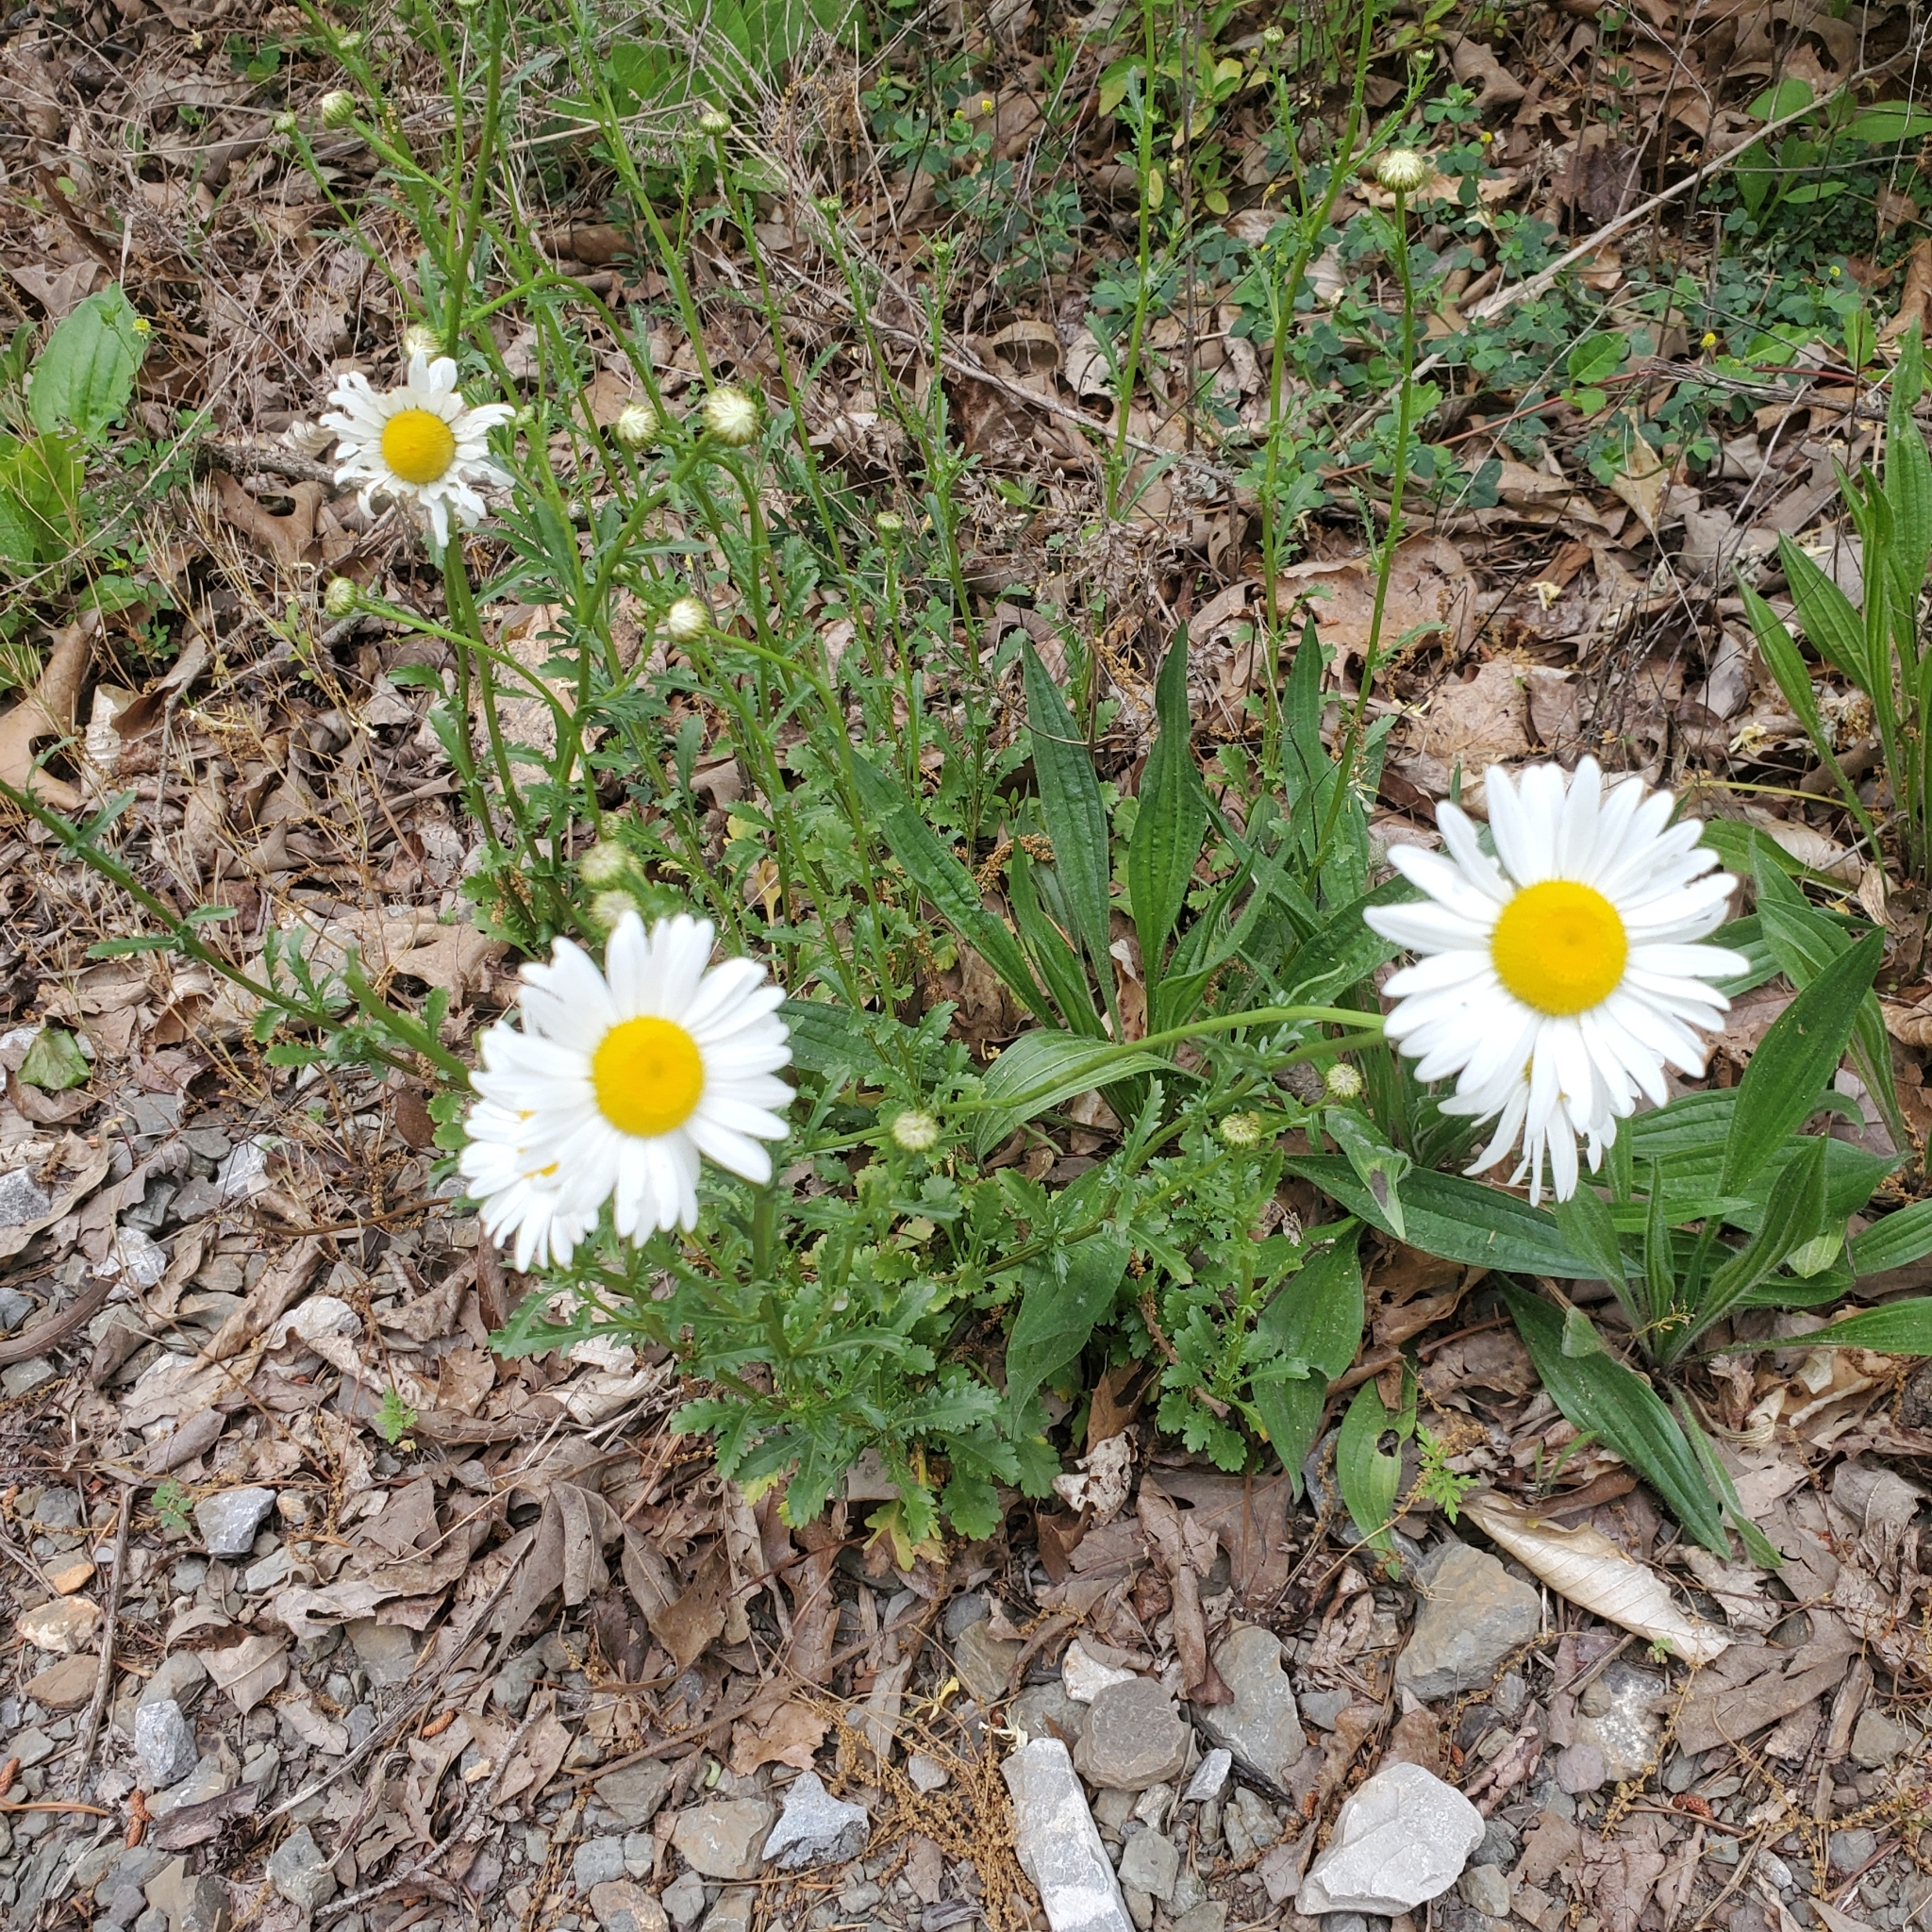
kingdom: Plantae
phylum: Tracheophyta
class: Magnoliopsida
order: Asterales
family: Asteraceae
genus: Leucanthemum
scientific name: Leucanthemum vulgare
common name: Oxeye daisy
